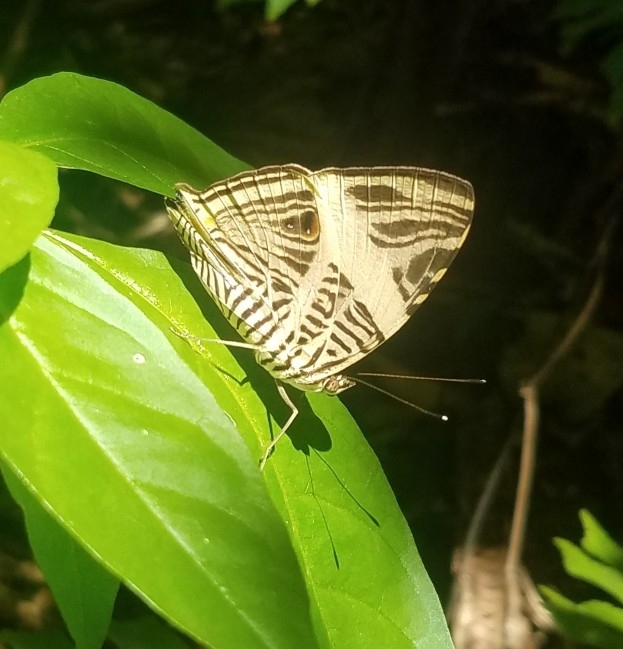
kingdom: Animalia
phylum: Arthropoda
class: Insecta
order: Lepidoptera
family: Nymphalidae
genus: Colobura
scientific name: Colobura dirce
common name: Dirce beauty
